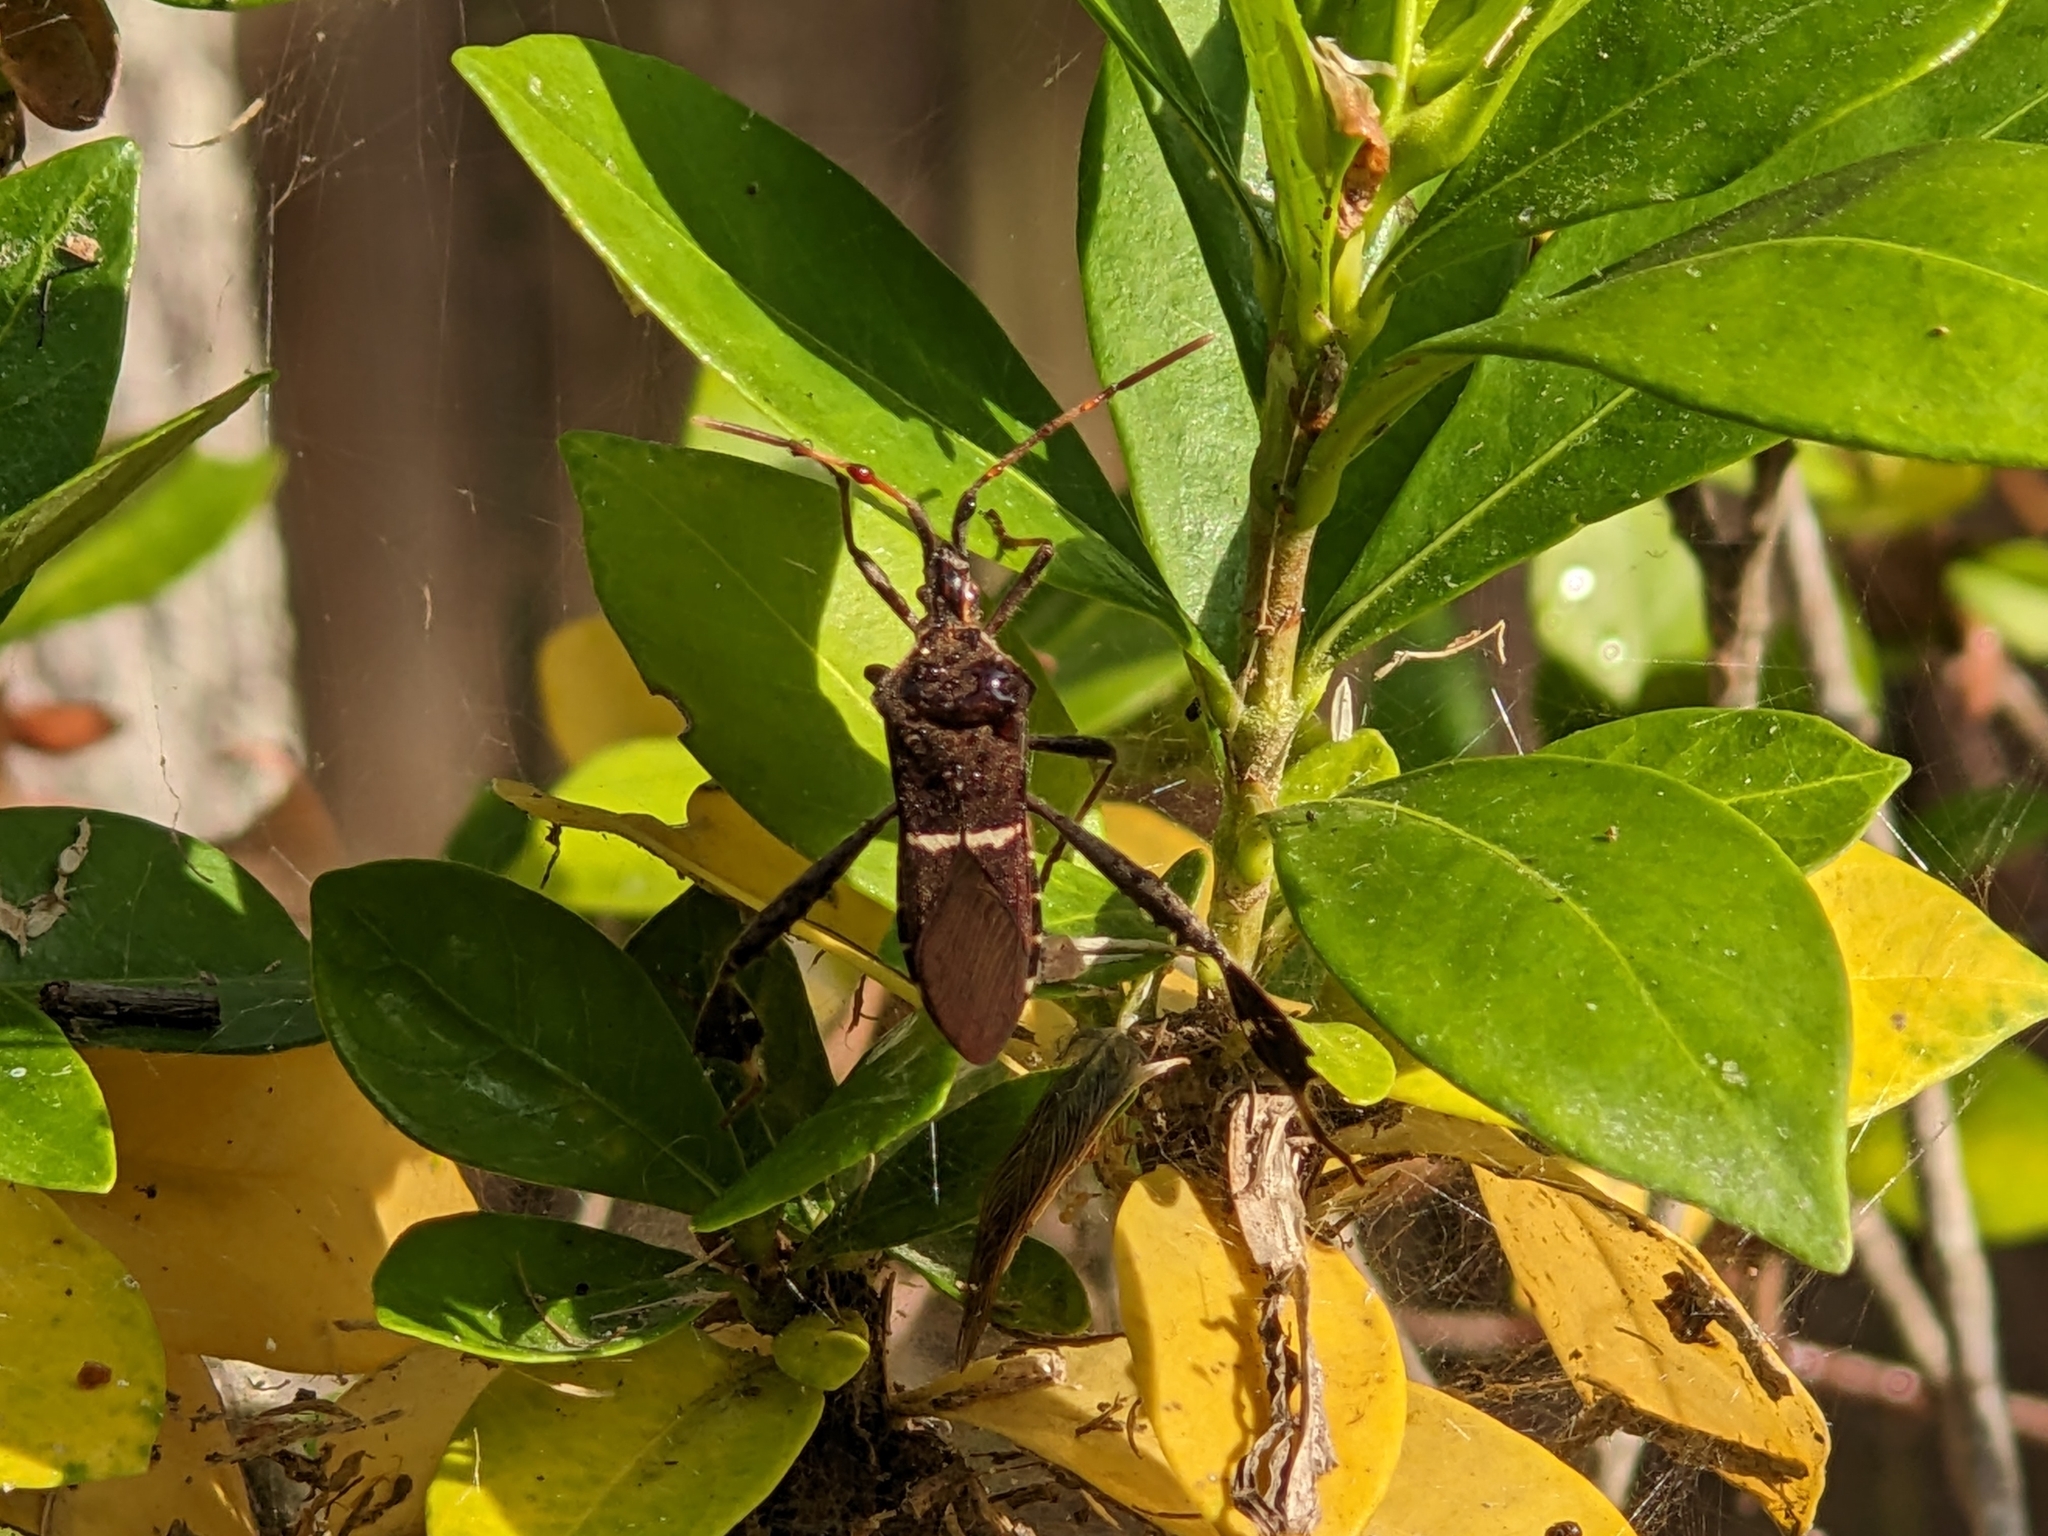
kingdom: Animalia
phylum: Arthropoda
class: Insecta
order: Hemiptera
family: Coreidae
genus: Leptoglossus
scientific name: Leptoglossus phyllopus
